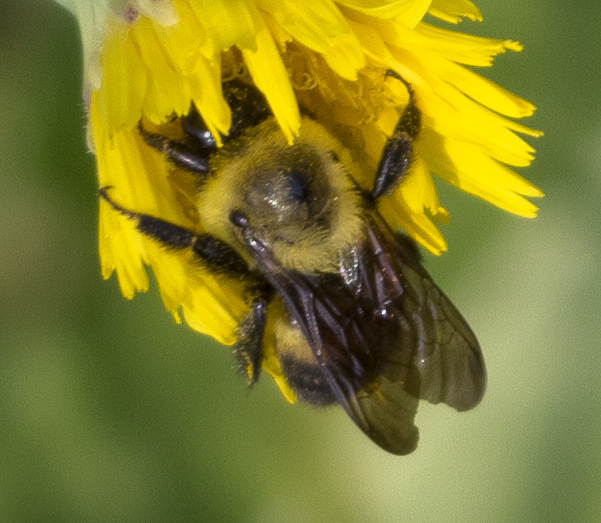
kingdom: Animalia
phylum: Arthropoda
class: Insecta
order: Hymenoptera
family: Apidae
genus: Bombus
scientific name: Bombus griseocollis
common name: Brown-belted bumble bee
